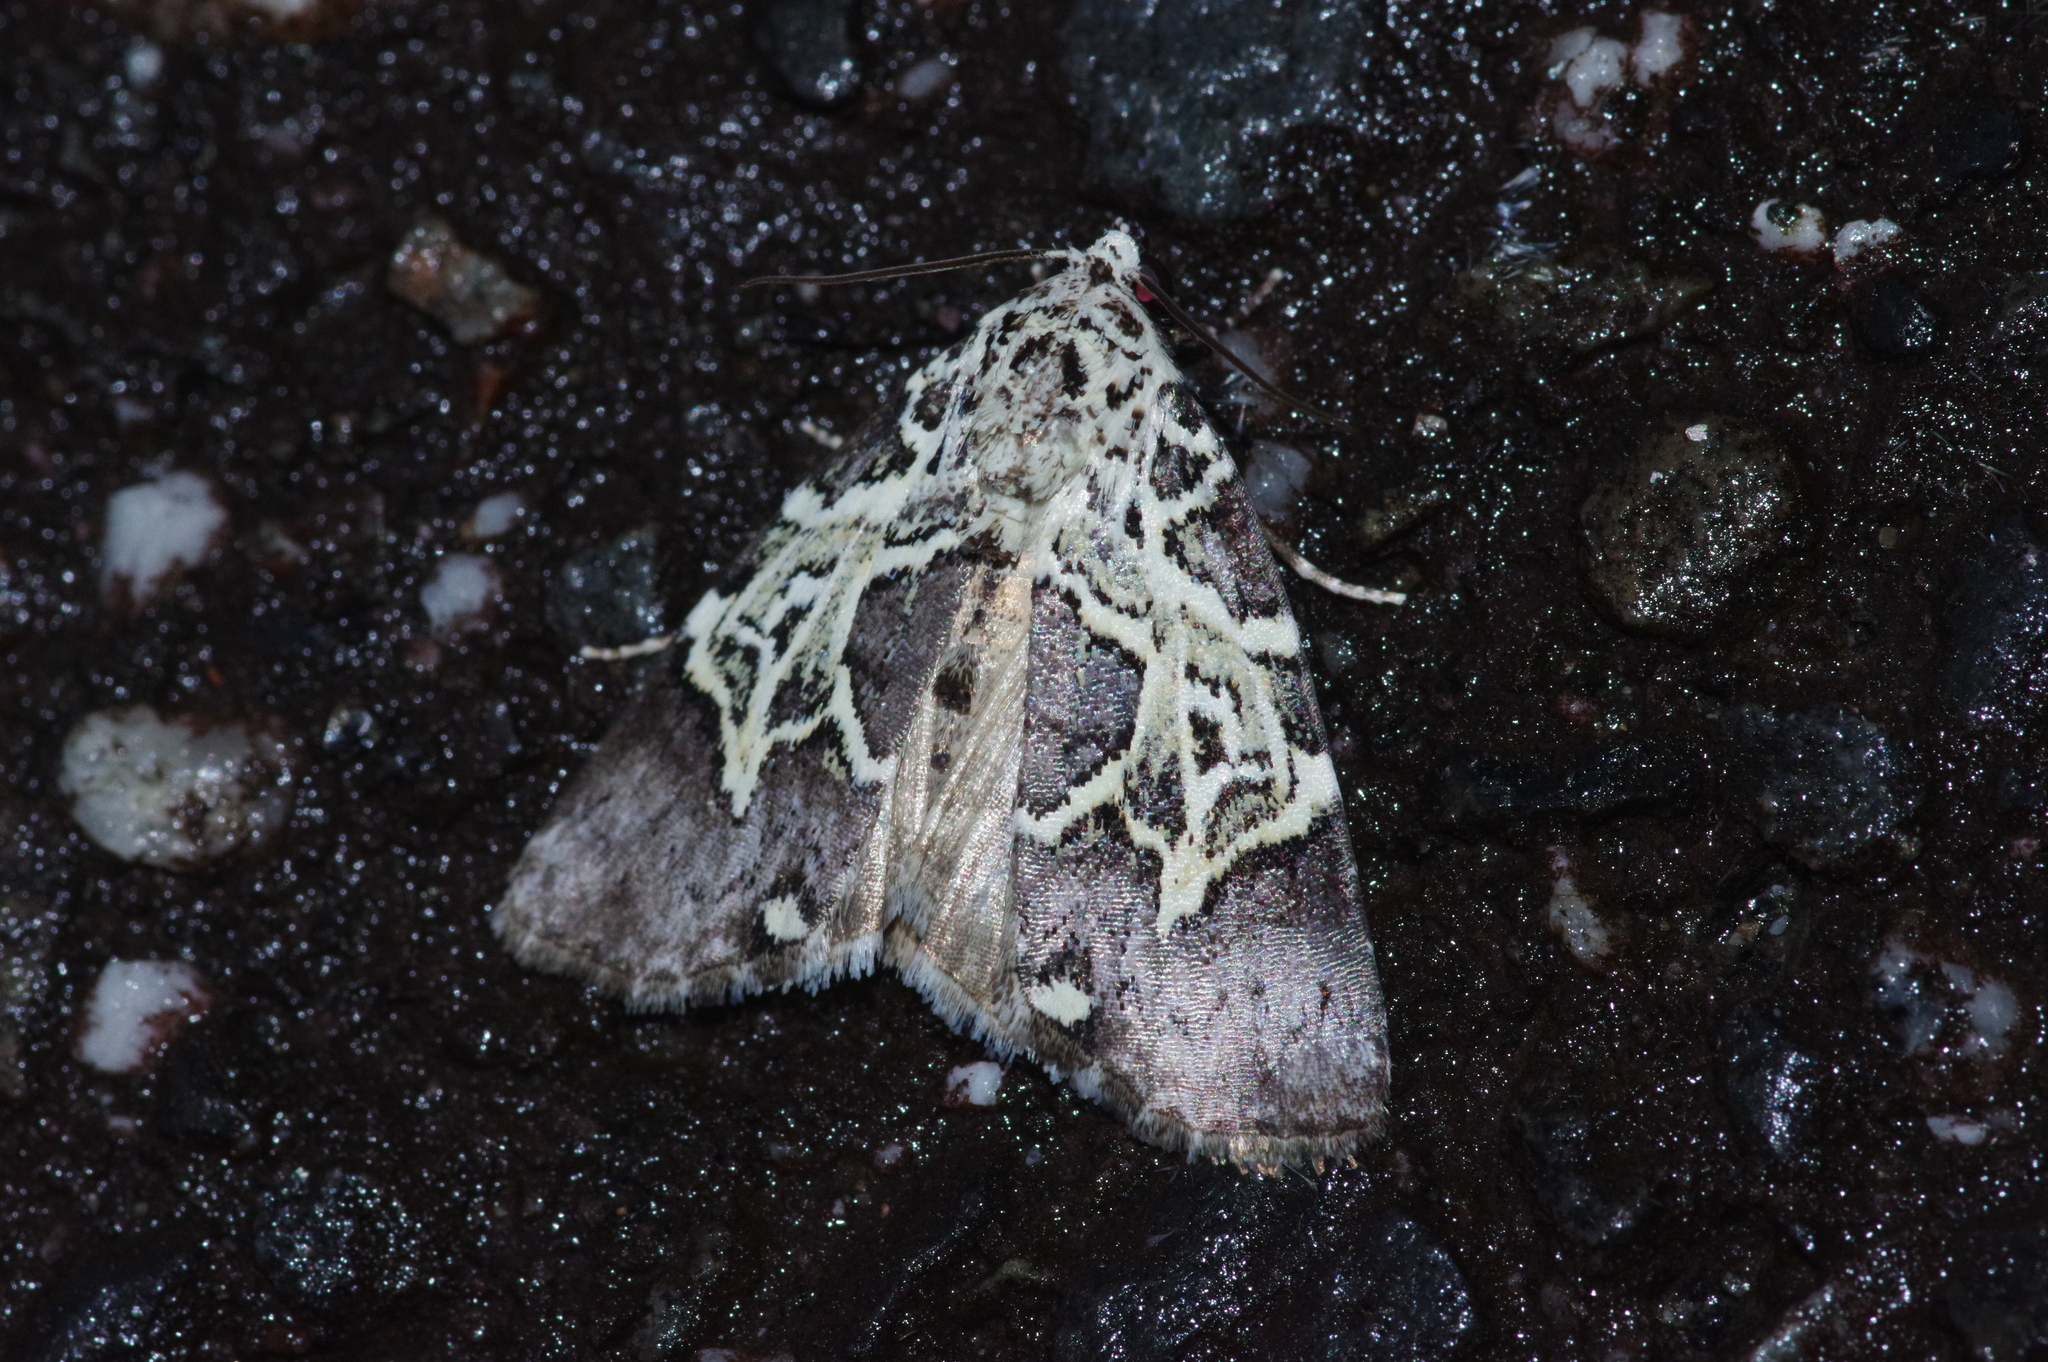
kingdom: Animalia
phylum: Arthropoda
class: Insecta
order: Lepidoptera
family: Noctuidae
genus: Lophonycta
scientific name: Lophonycta confusa
